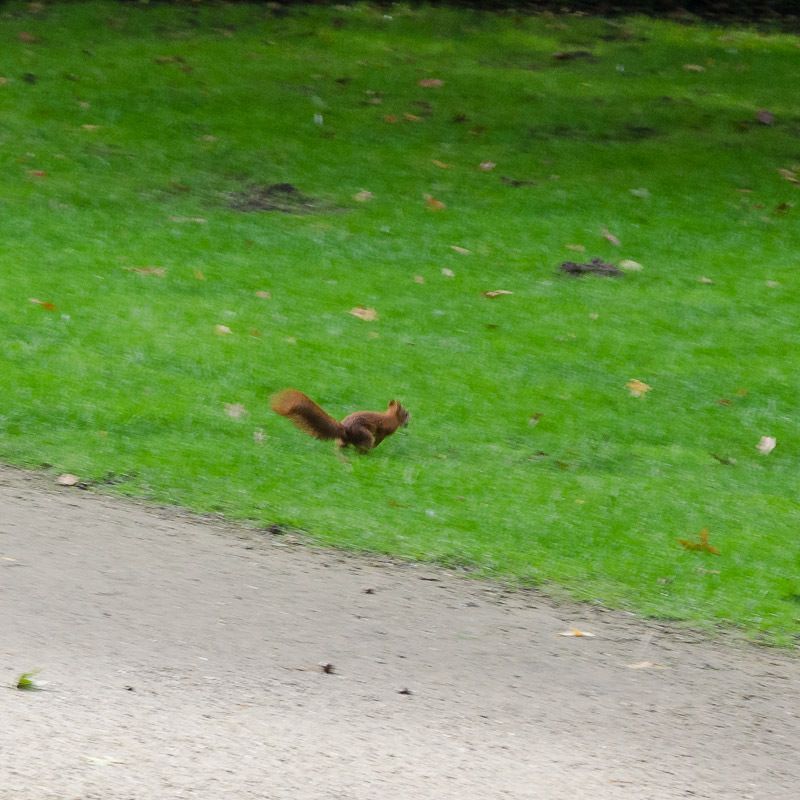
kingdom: Animalia
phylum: Chordata
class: Mammalia
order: Rodentia
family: Sciuridae
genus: Sciurus
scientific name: Sciurus vulgaris
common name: Eurasian red squirrel
